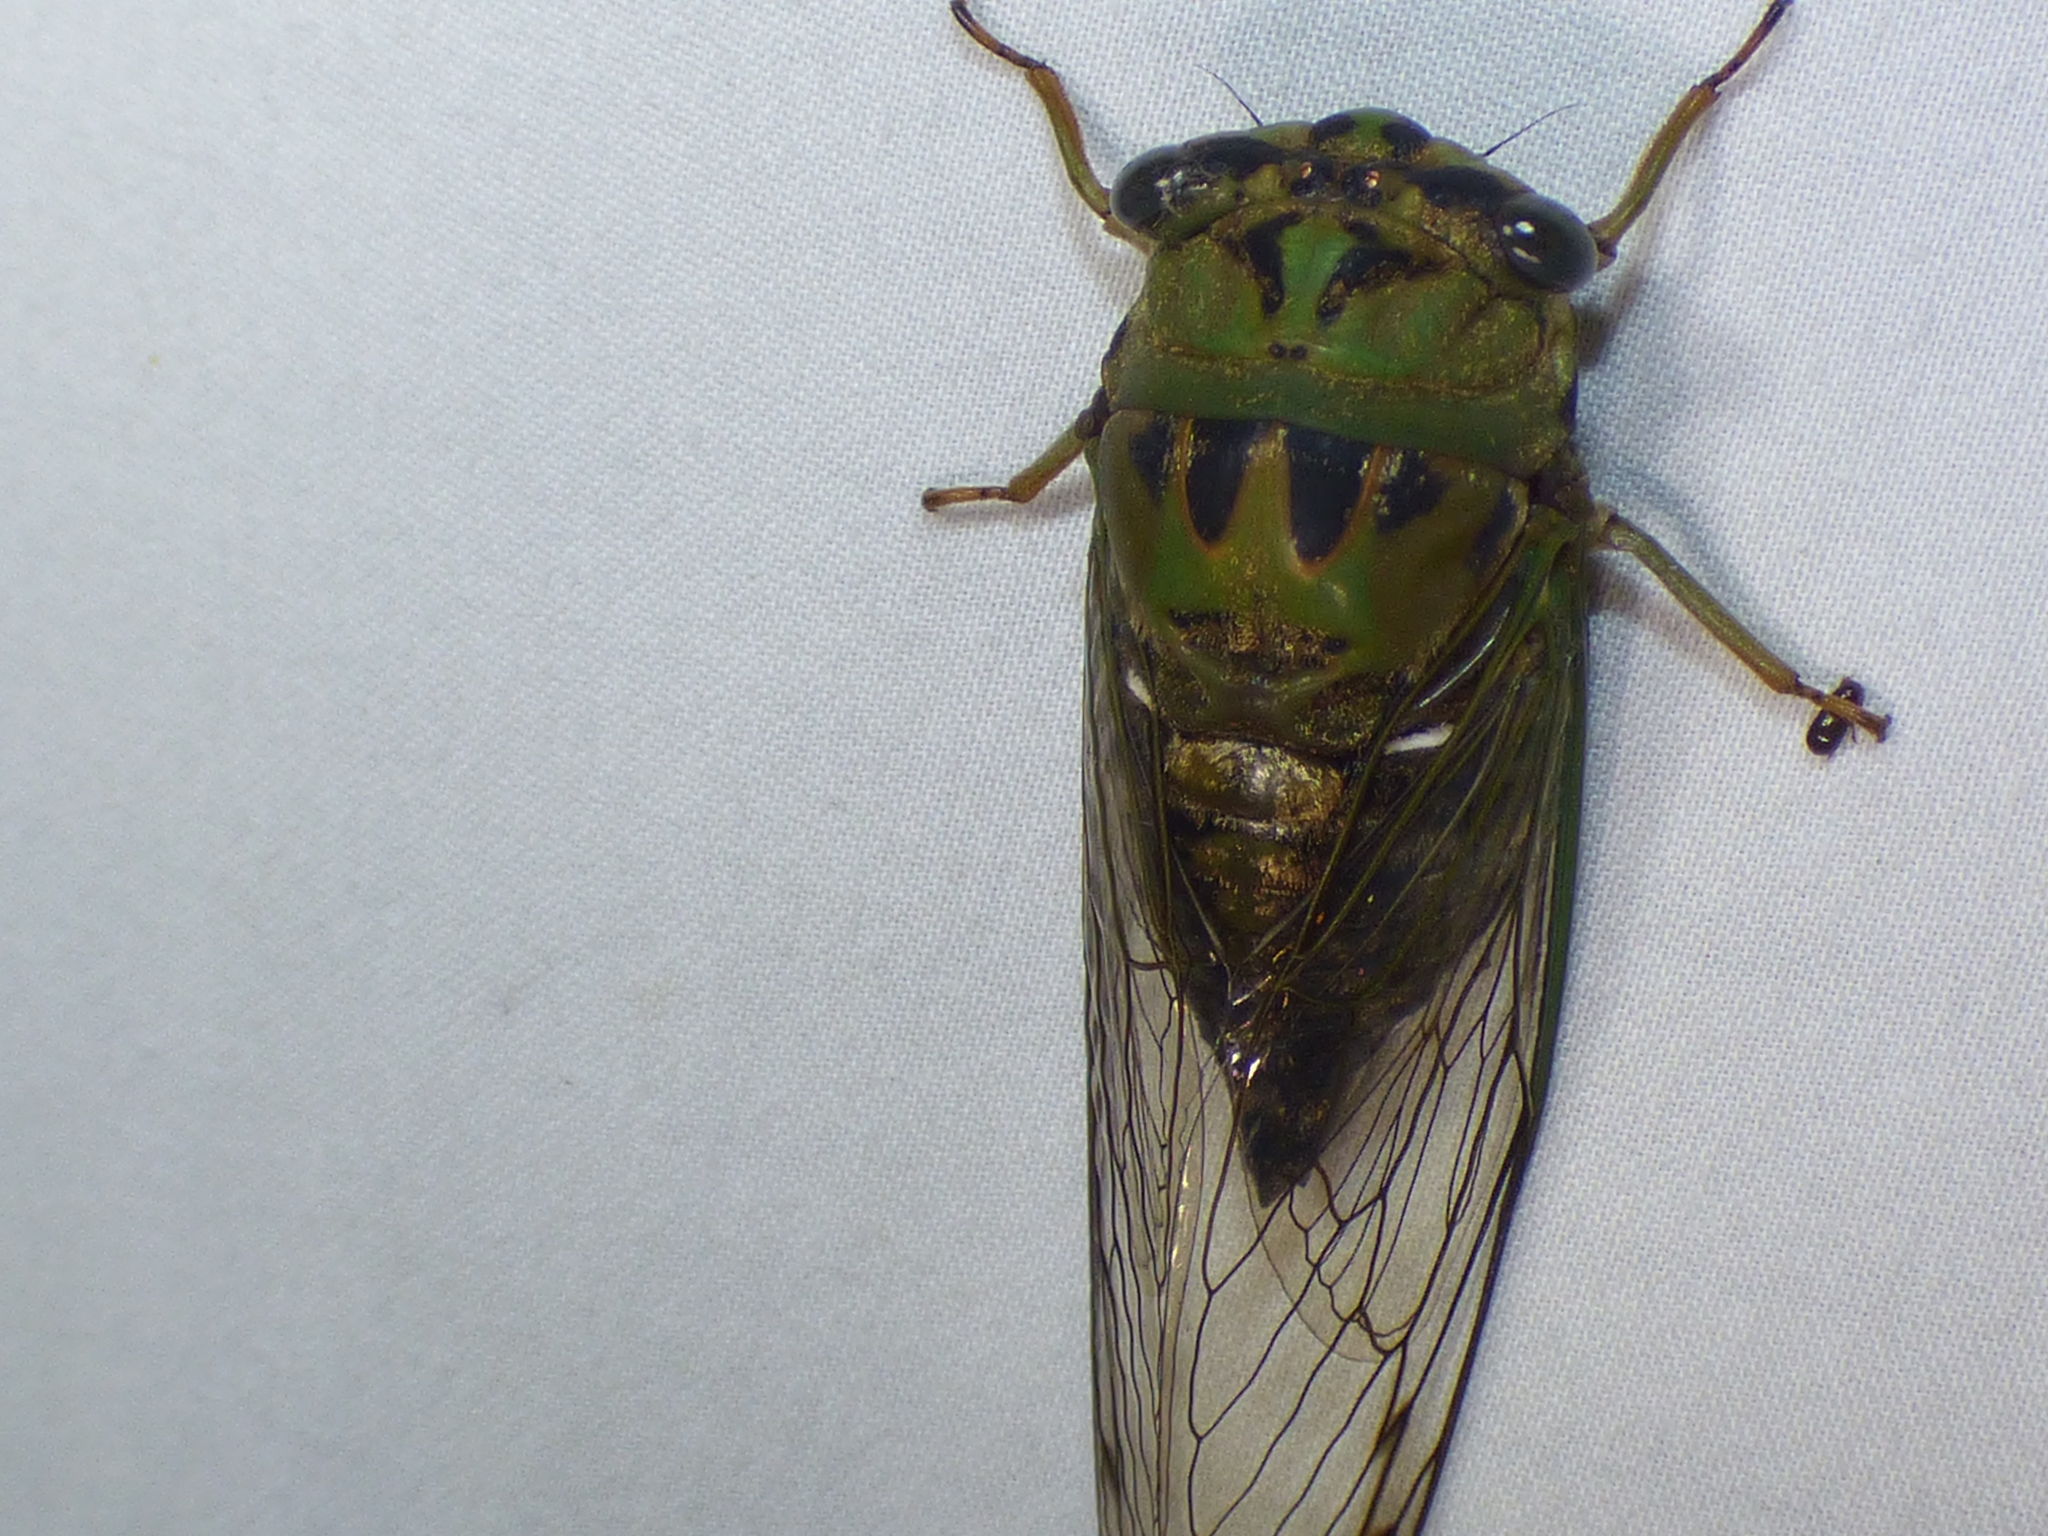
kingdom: Animalia
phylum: Arthropoda
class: Insecta
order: Hemiptera
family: Cicadidae
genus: Neotibicen
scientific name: Neotibicen winnemanna
